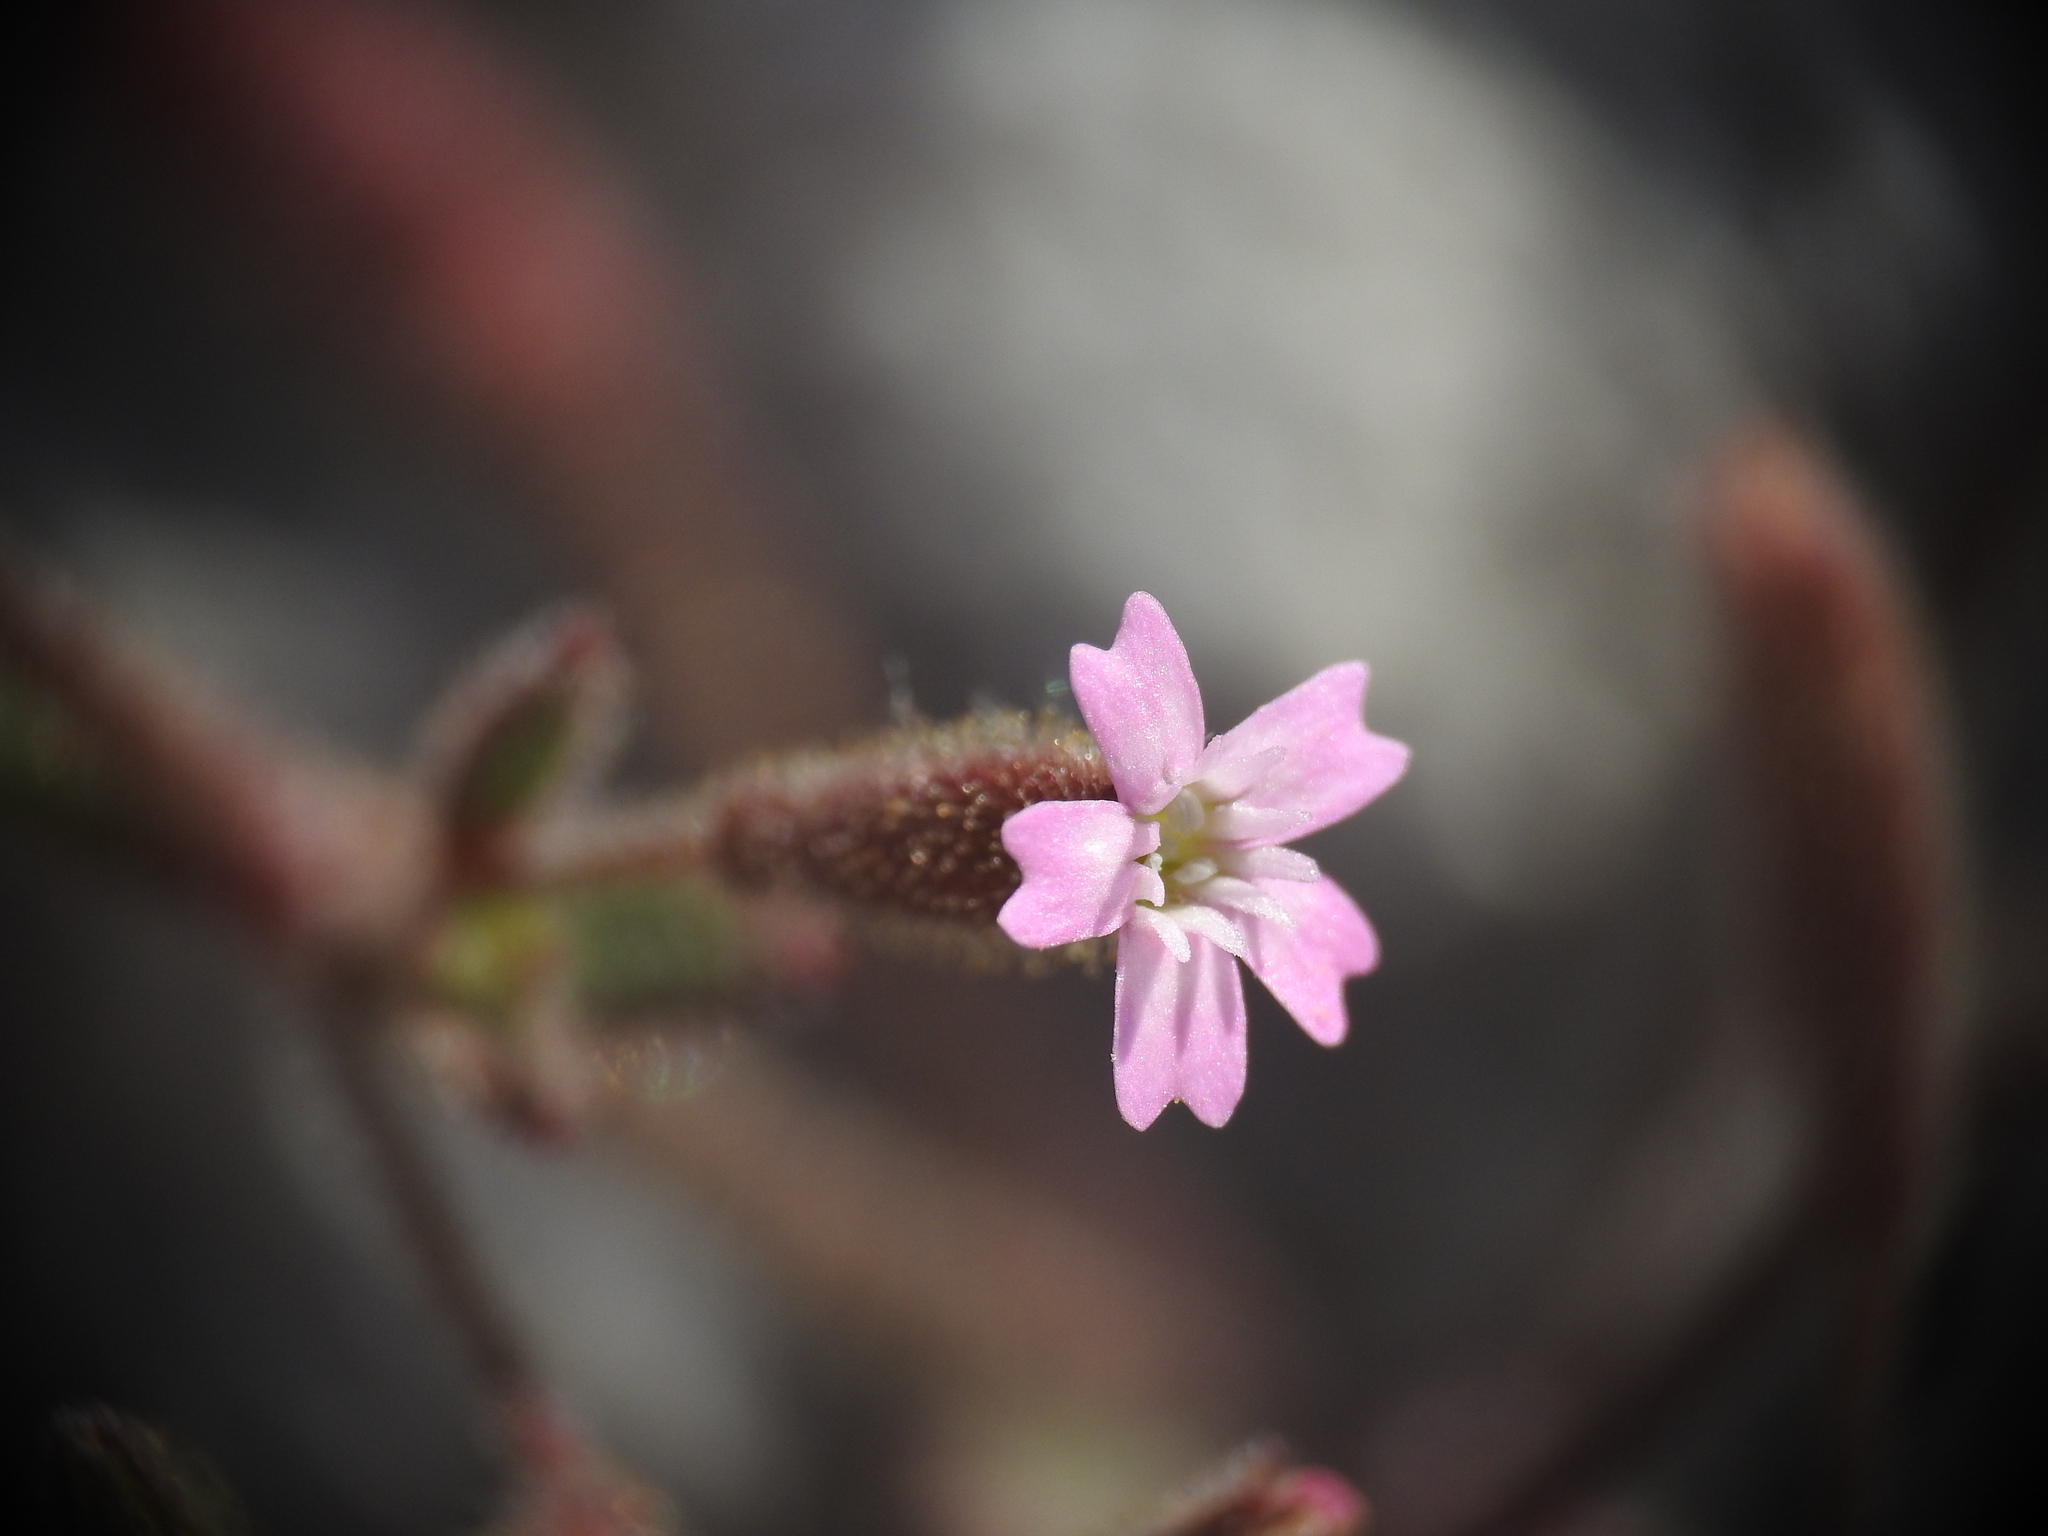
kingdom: Plantae
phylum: Tracheophyta
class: Magnoliopsida
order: Caryophyllales
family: Caryophyllaceae
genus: Silene
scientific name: Silene sedoides
